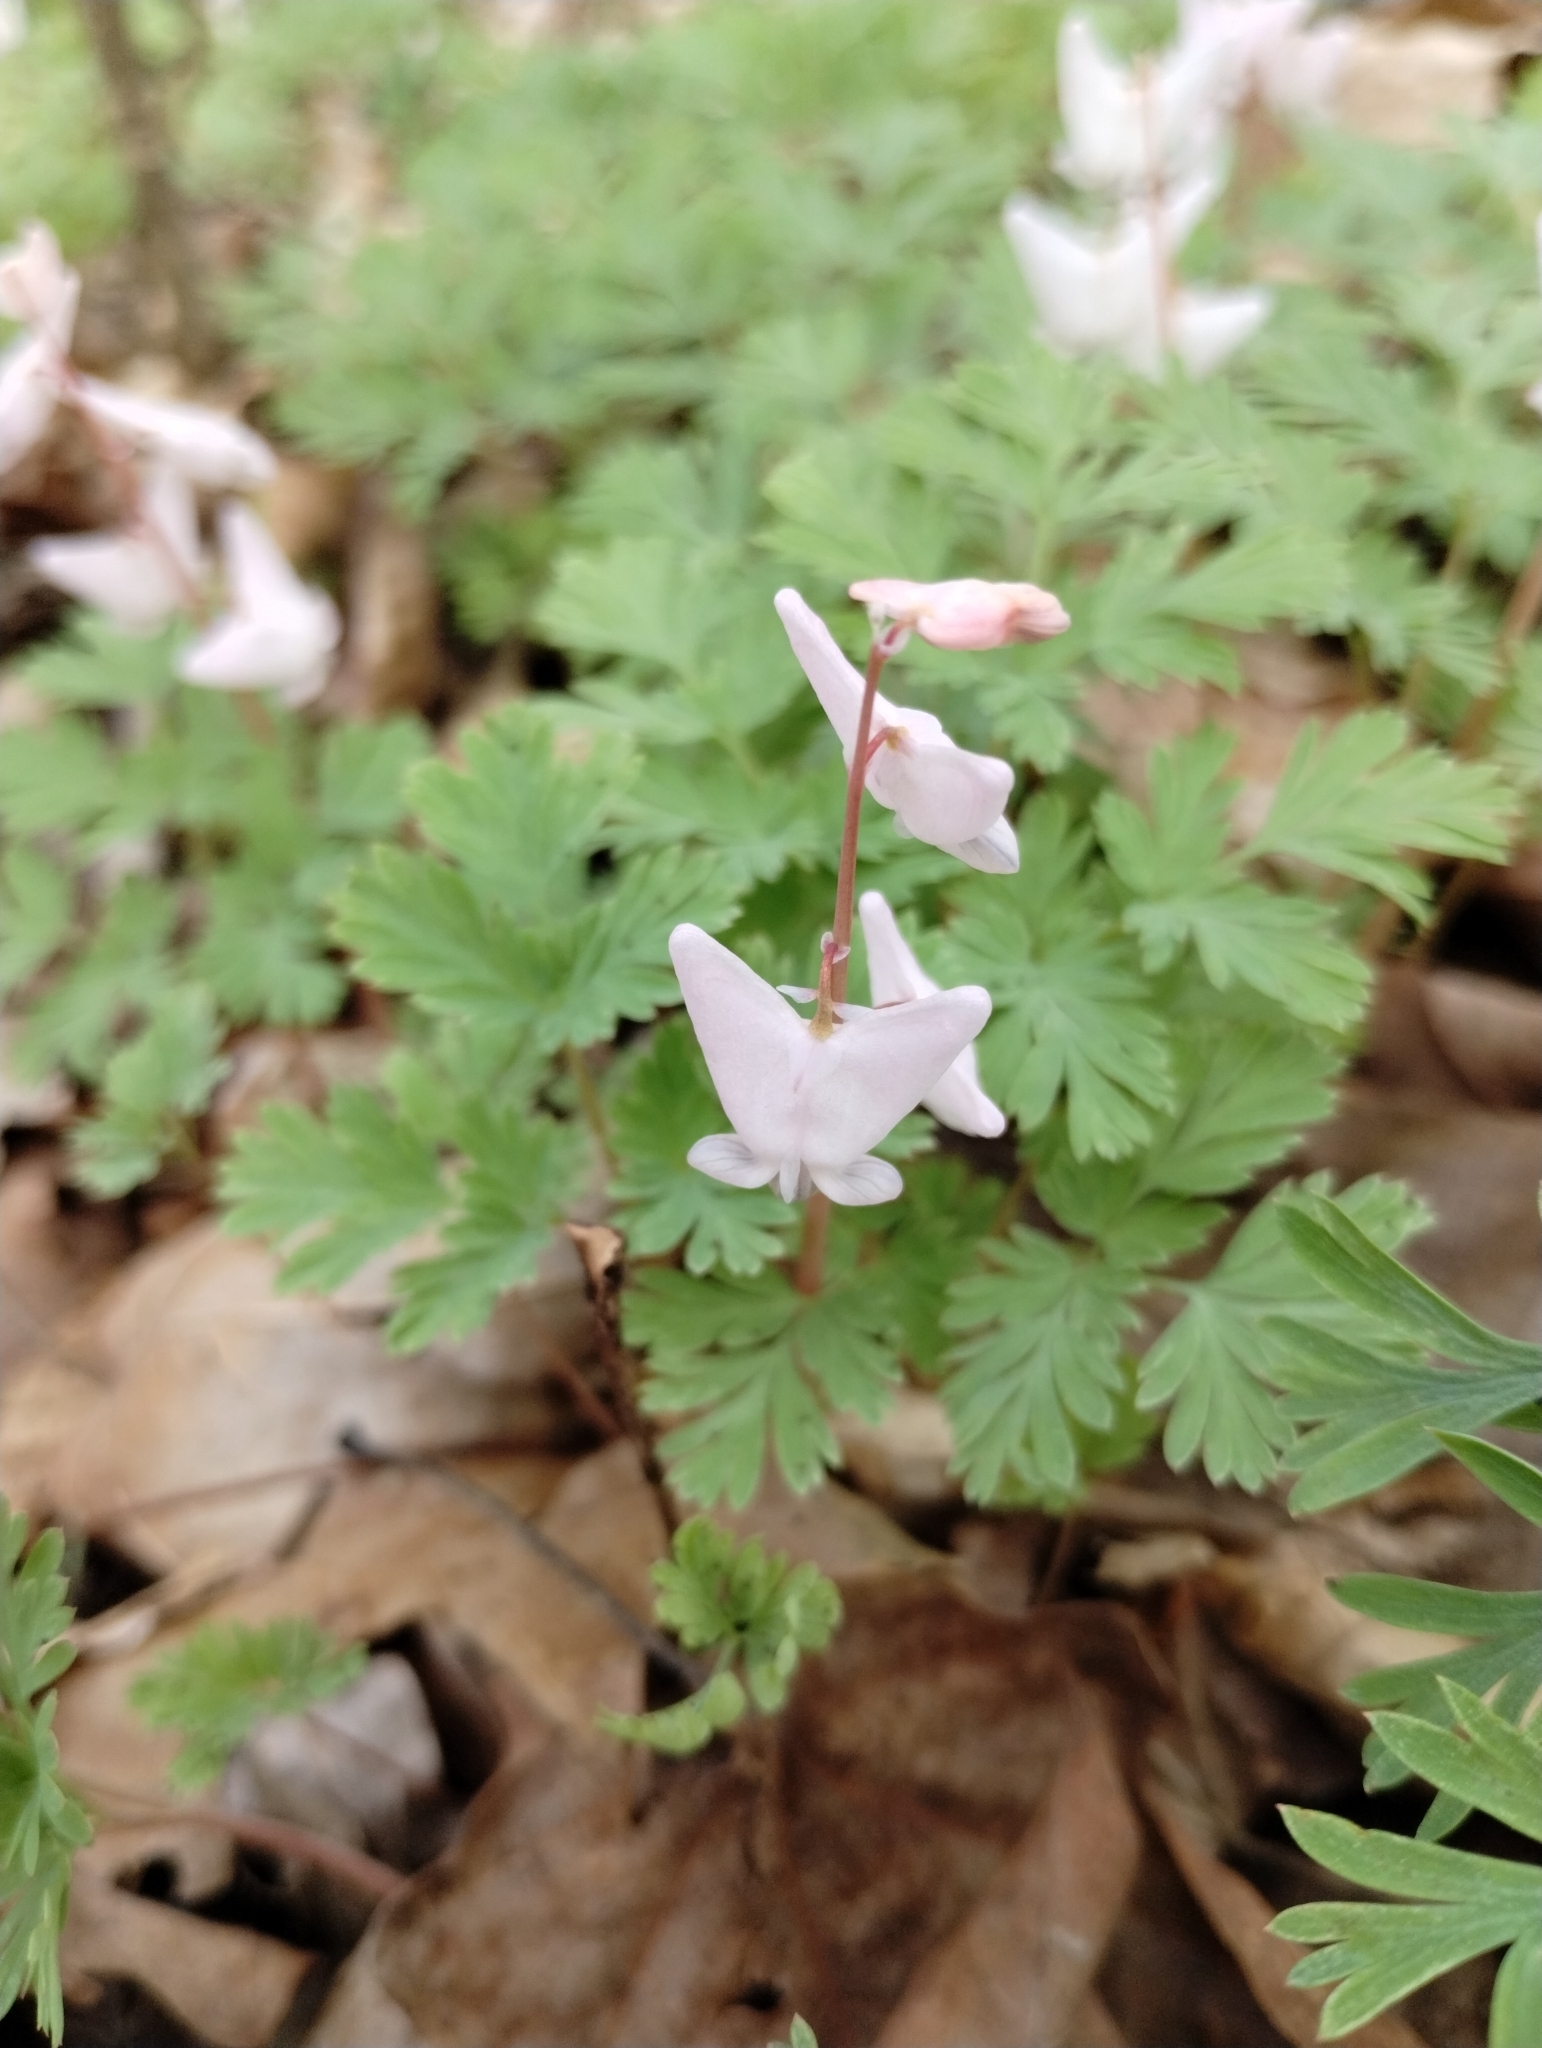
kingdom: Plantae
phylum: Tracheophyta
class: Magnoliopsida
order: Ranunculales
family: Papaveraceae
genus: Dicentra
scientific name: Dicentra cucullaria
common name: Dutchman's breeches
